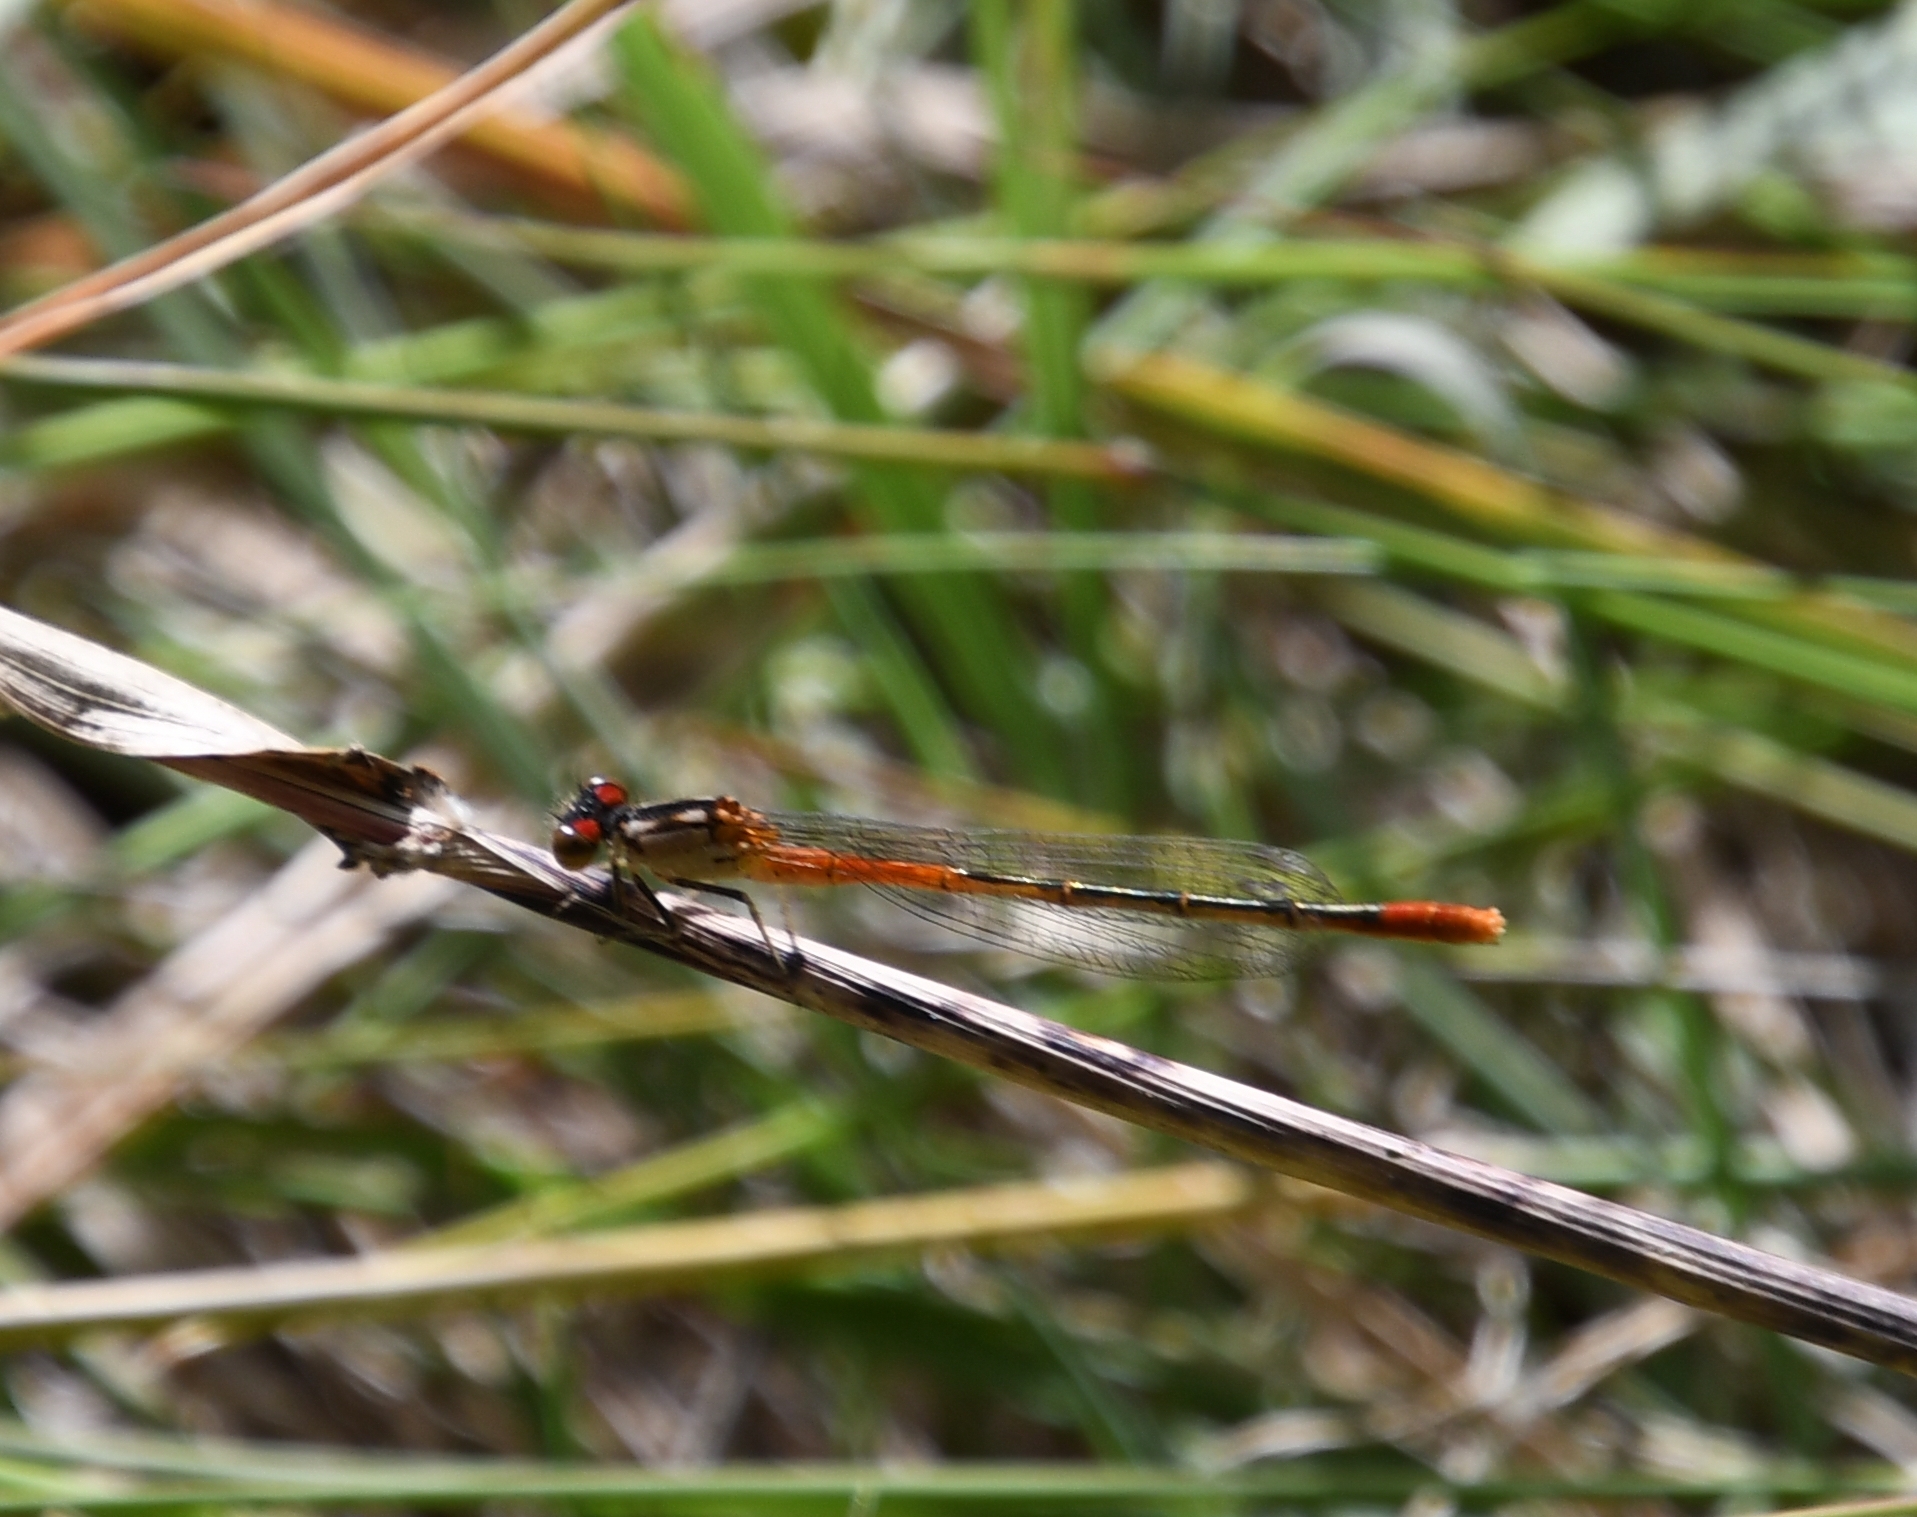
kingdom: Animalia
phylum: Arthropoda
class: Insecta
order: Odonata
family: Coenagrionidae
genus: Hesperagrion
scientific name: Hesperagrion heterodoxum
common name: Painted damsel
